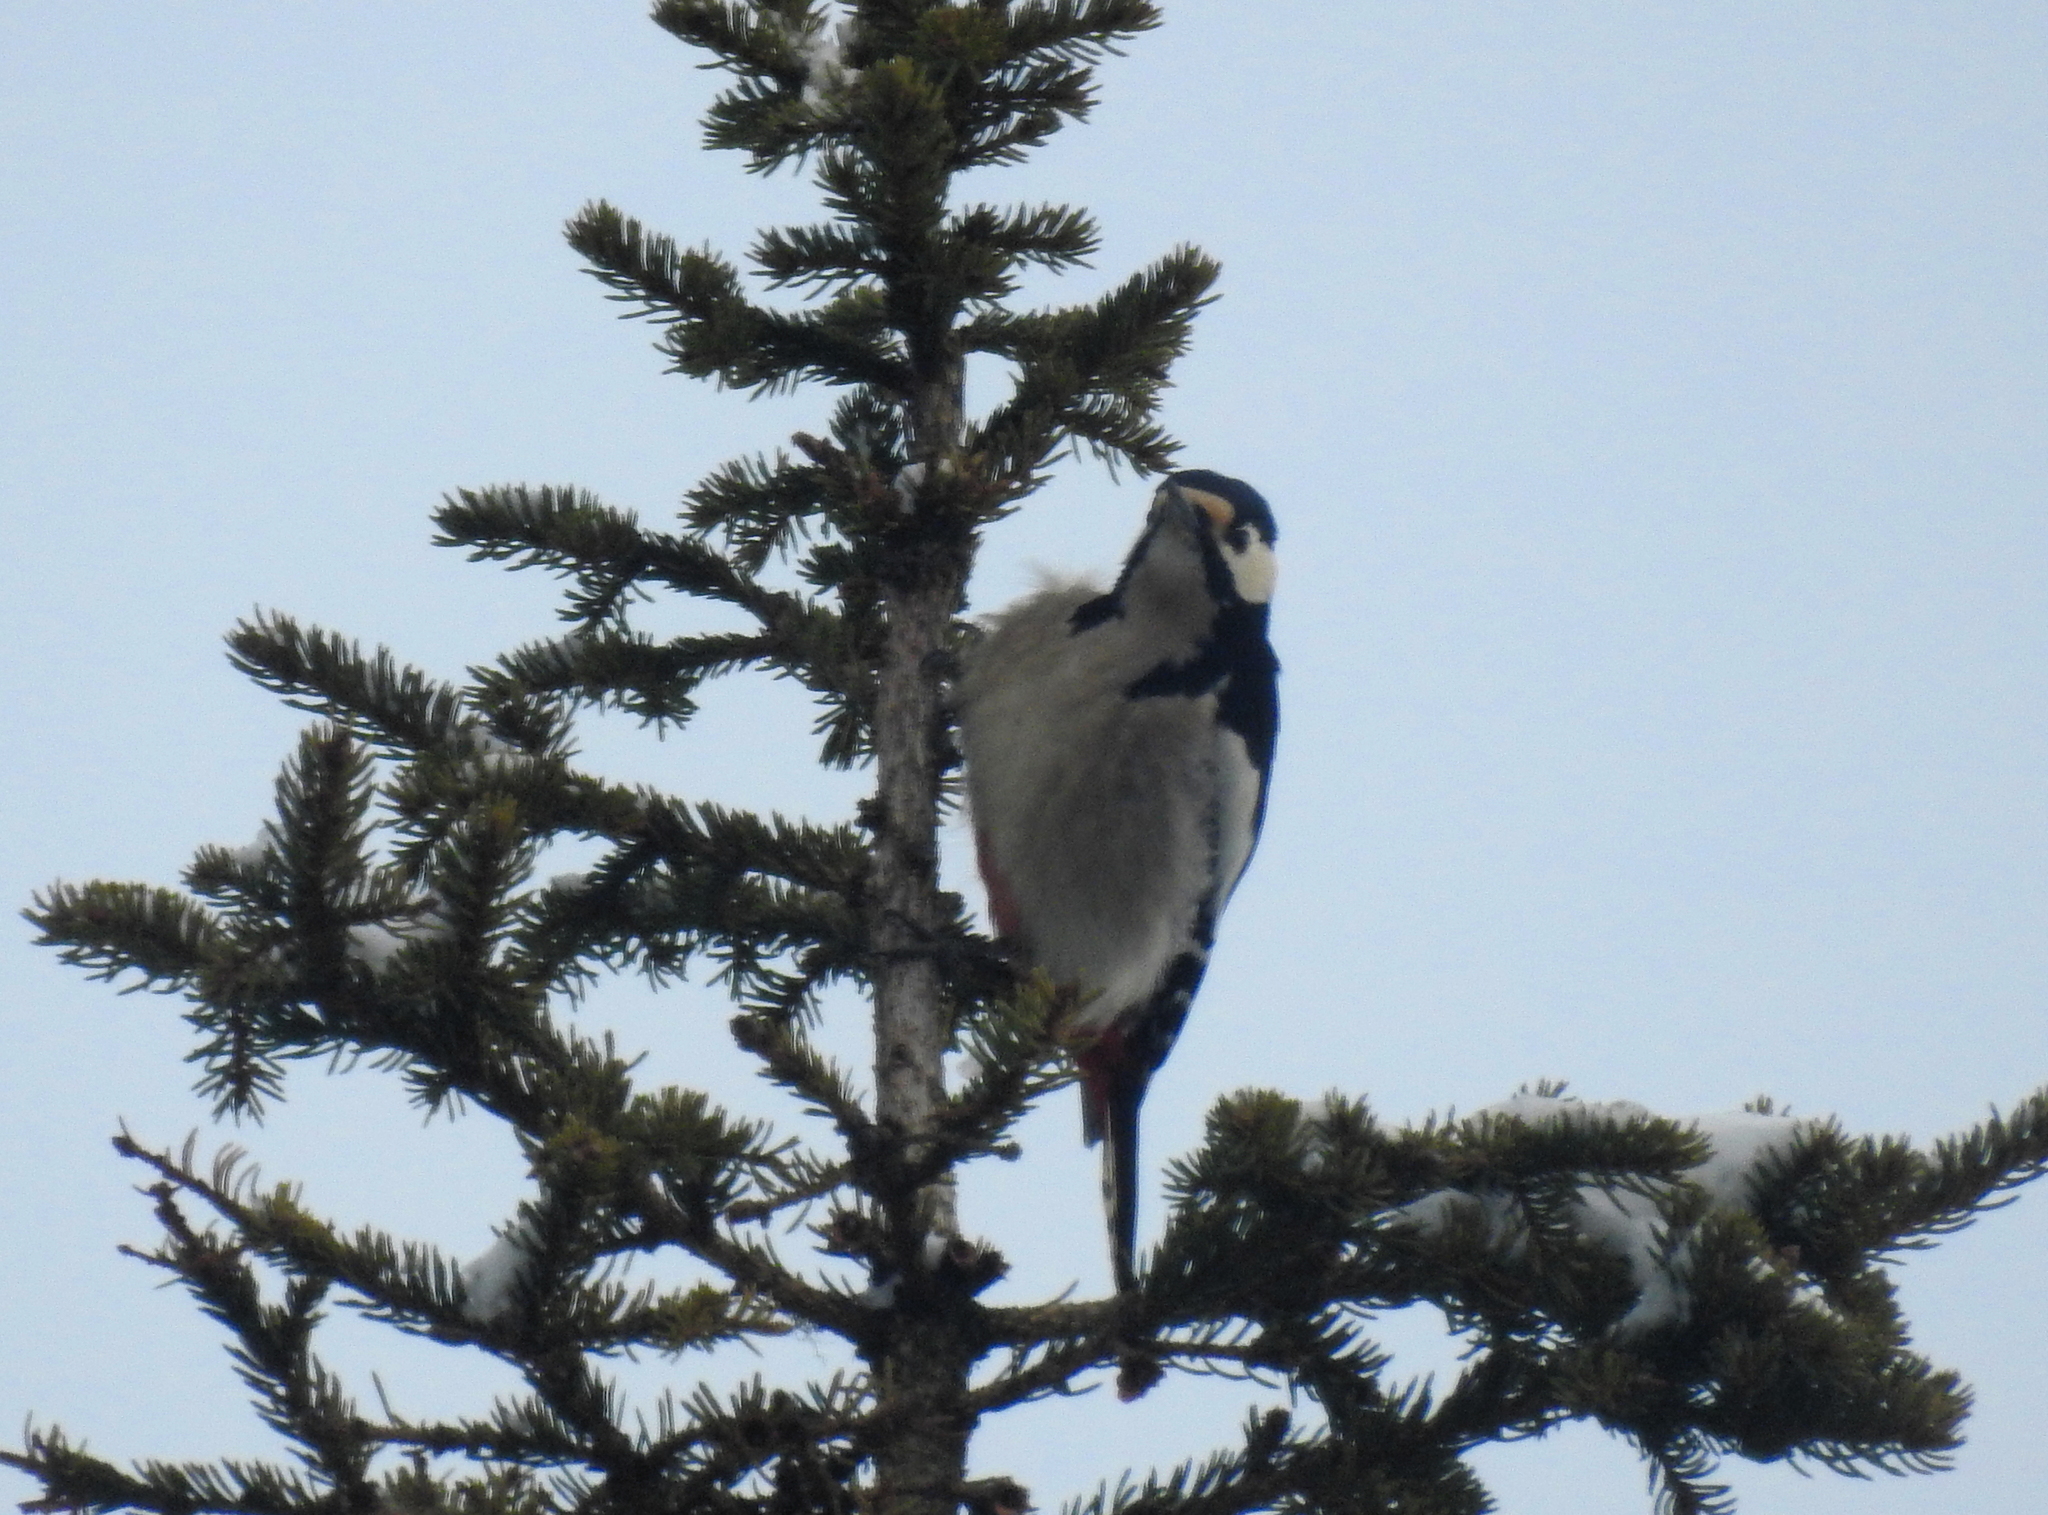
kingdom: Animalia
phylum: Chordata
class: Aves
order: Piciformes
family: Picidae
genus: Dendrocopos
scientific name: Dendrocopos major
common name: Great spotted woodpecker
